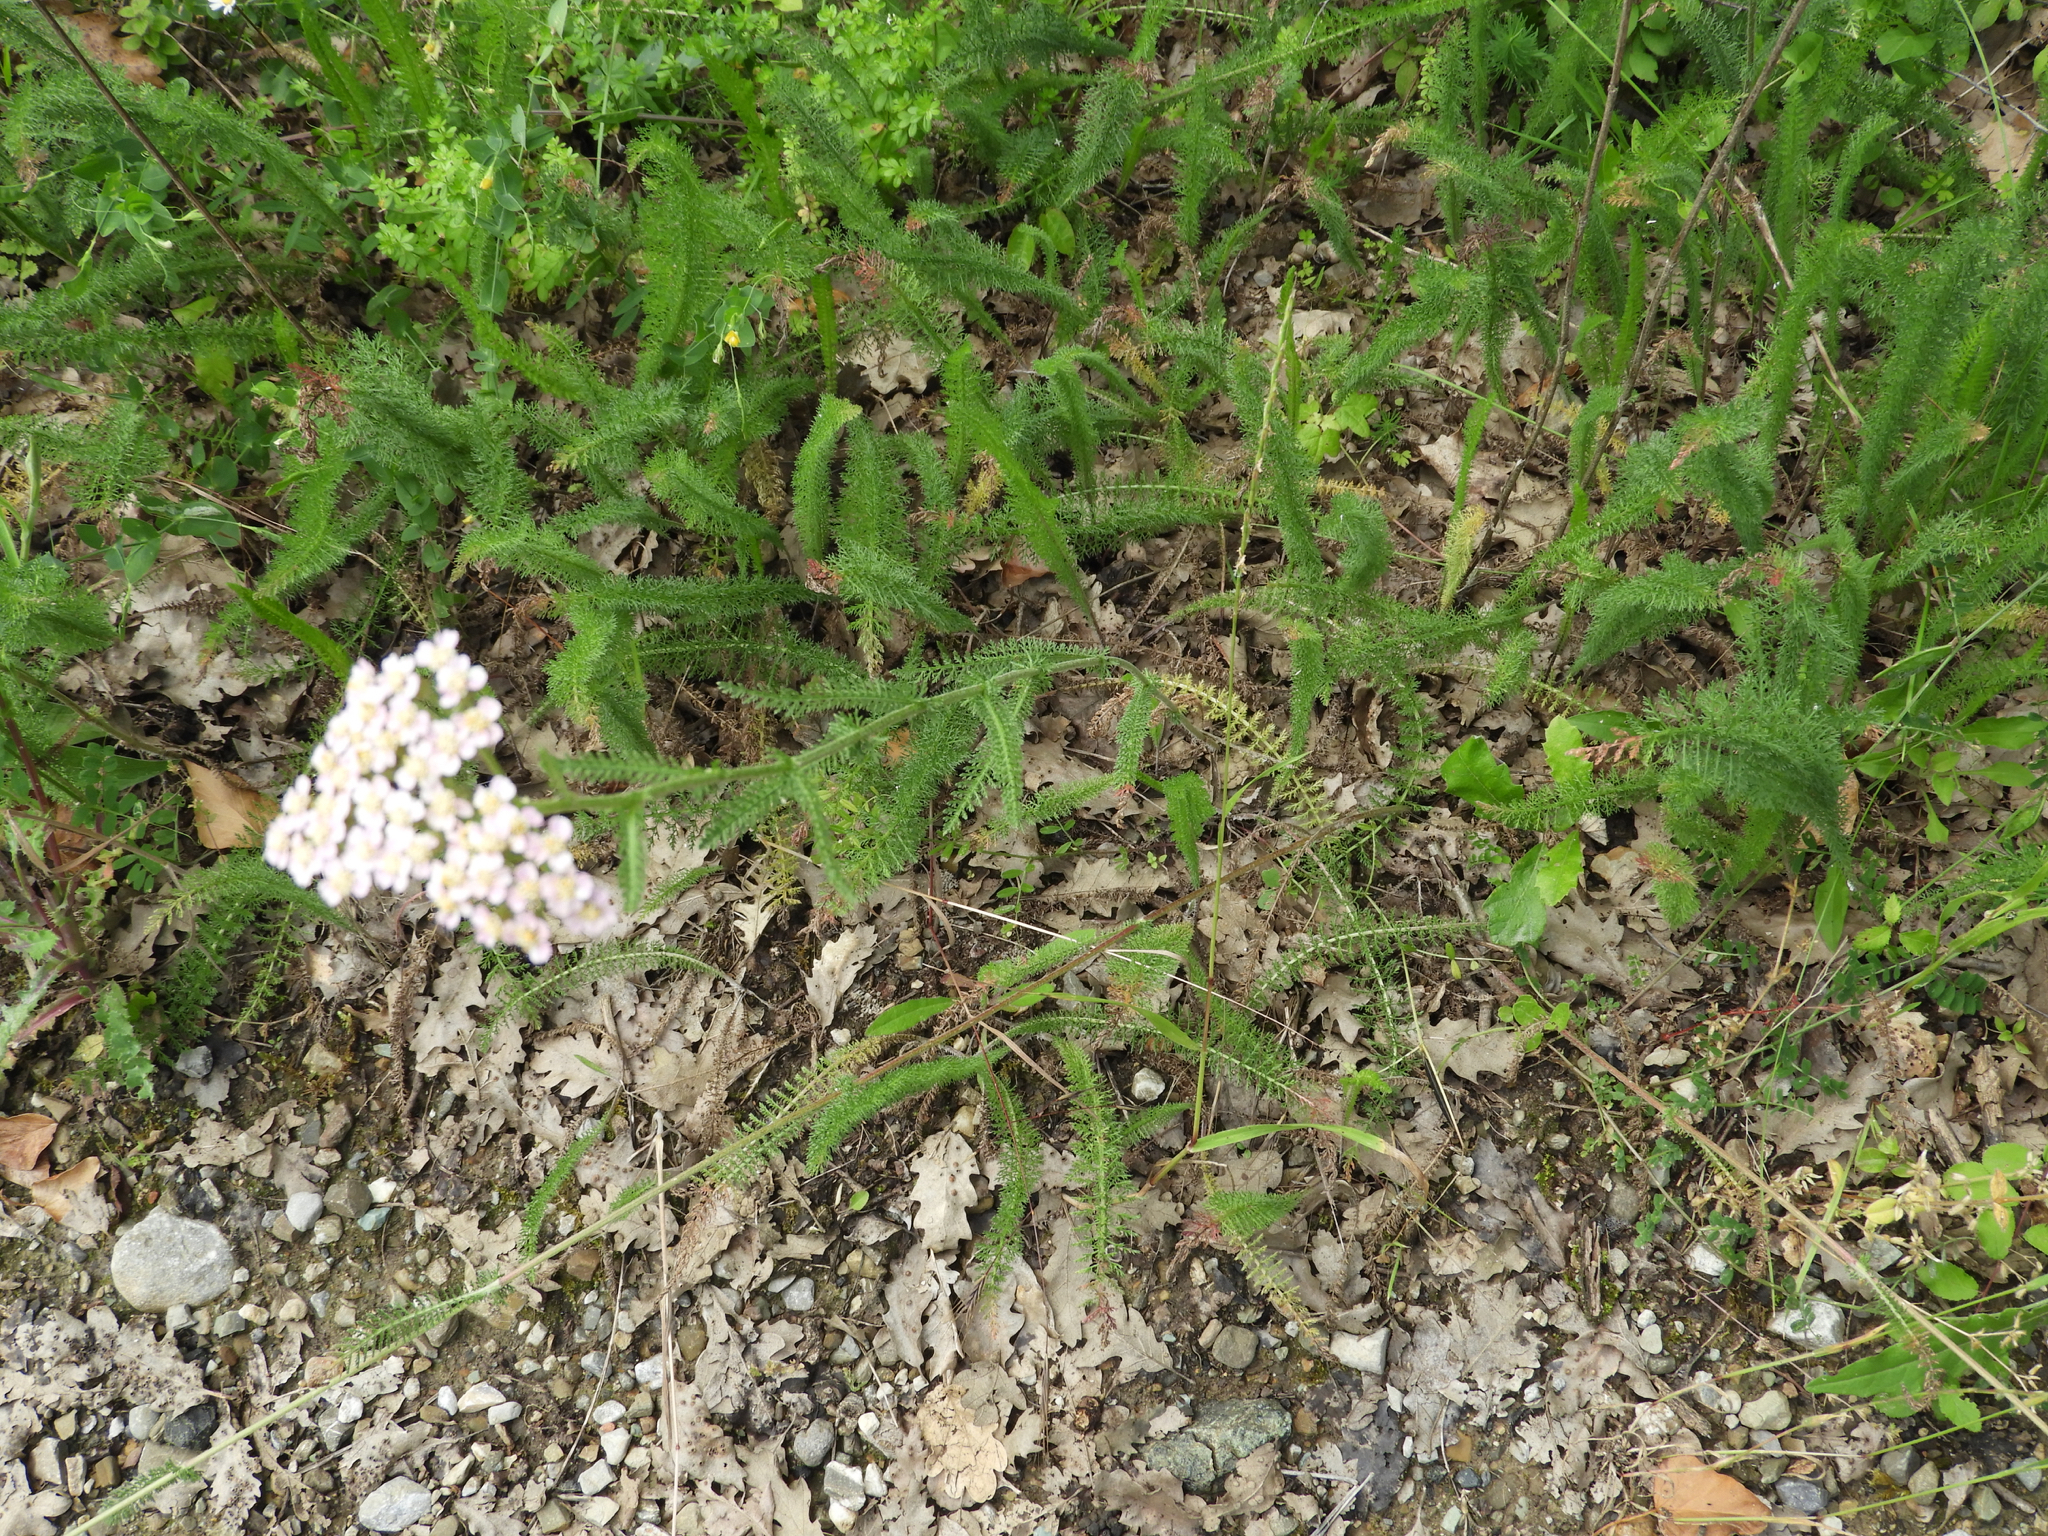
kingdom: Plantae
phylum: Tracheophyta
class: Magnoliopsida
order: Asterales
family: Asteraceae
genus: Achillea
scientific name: Achillea millefolium
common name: Yarrow
